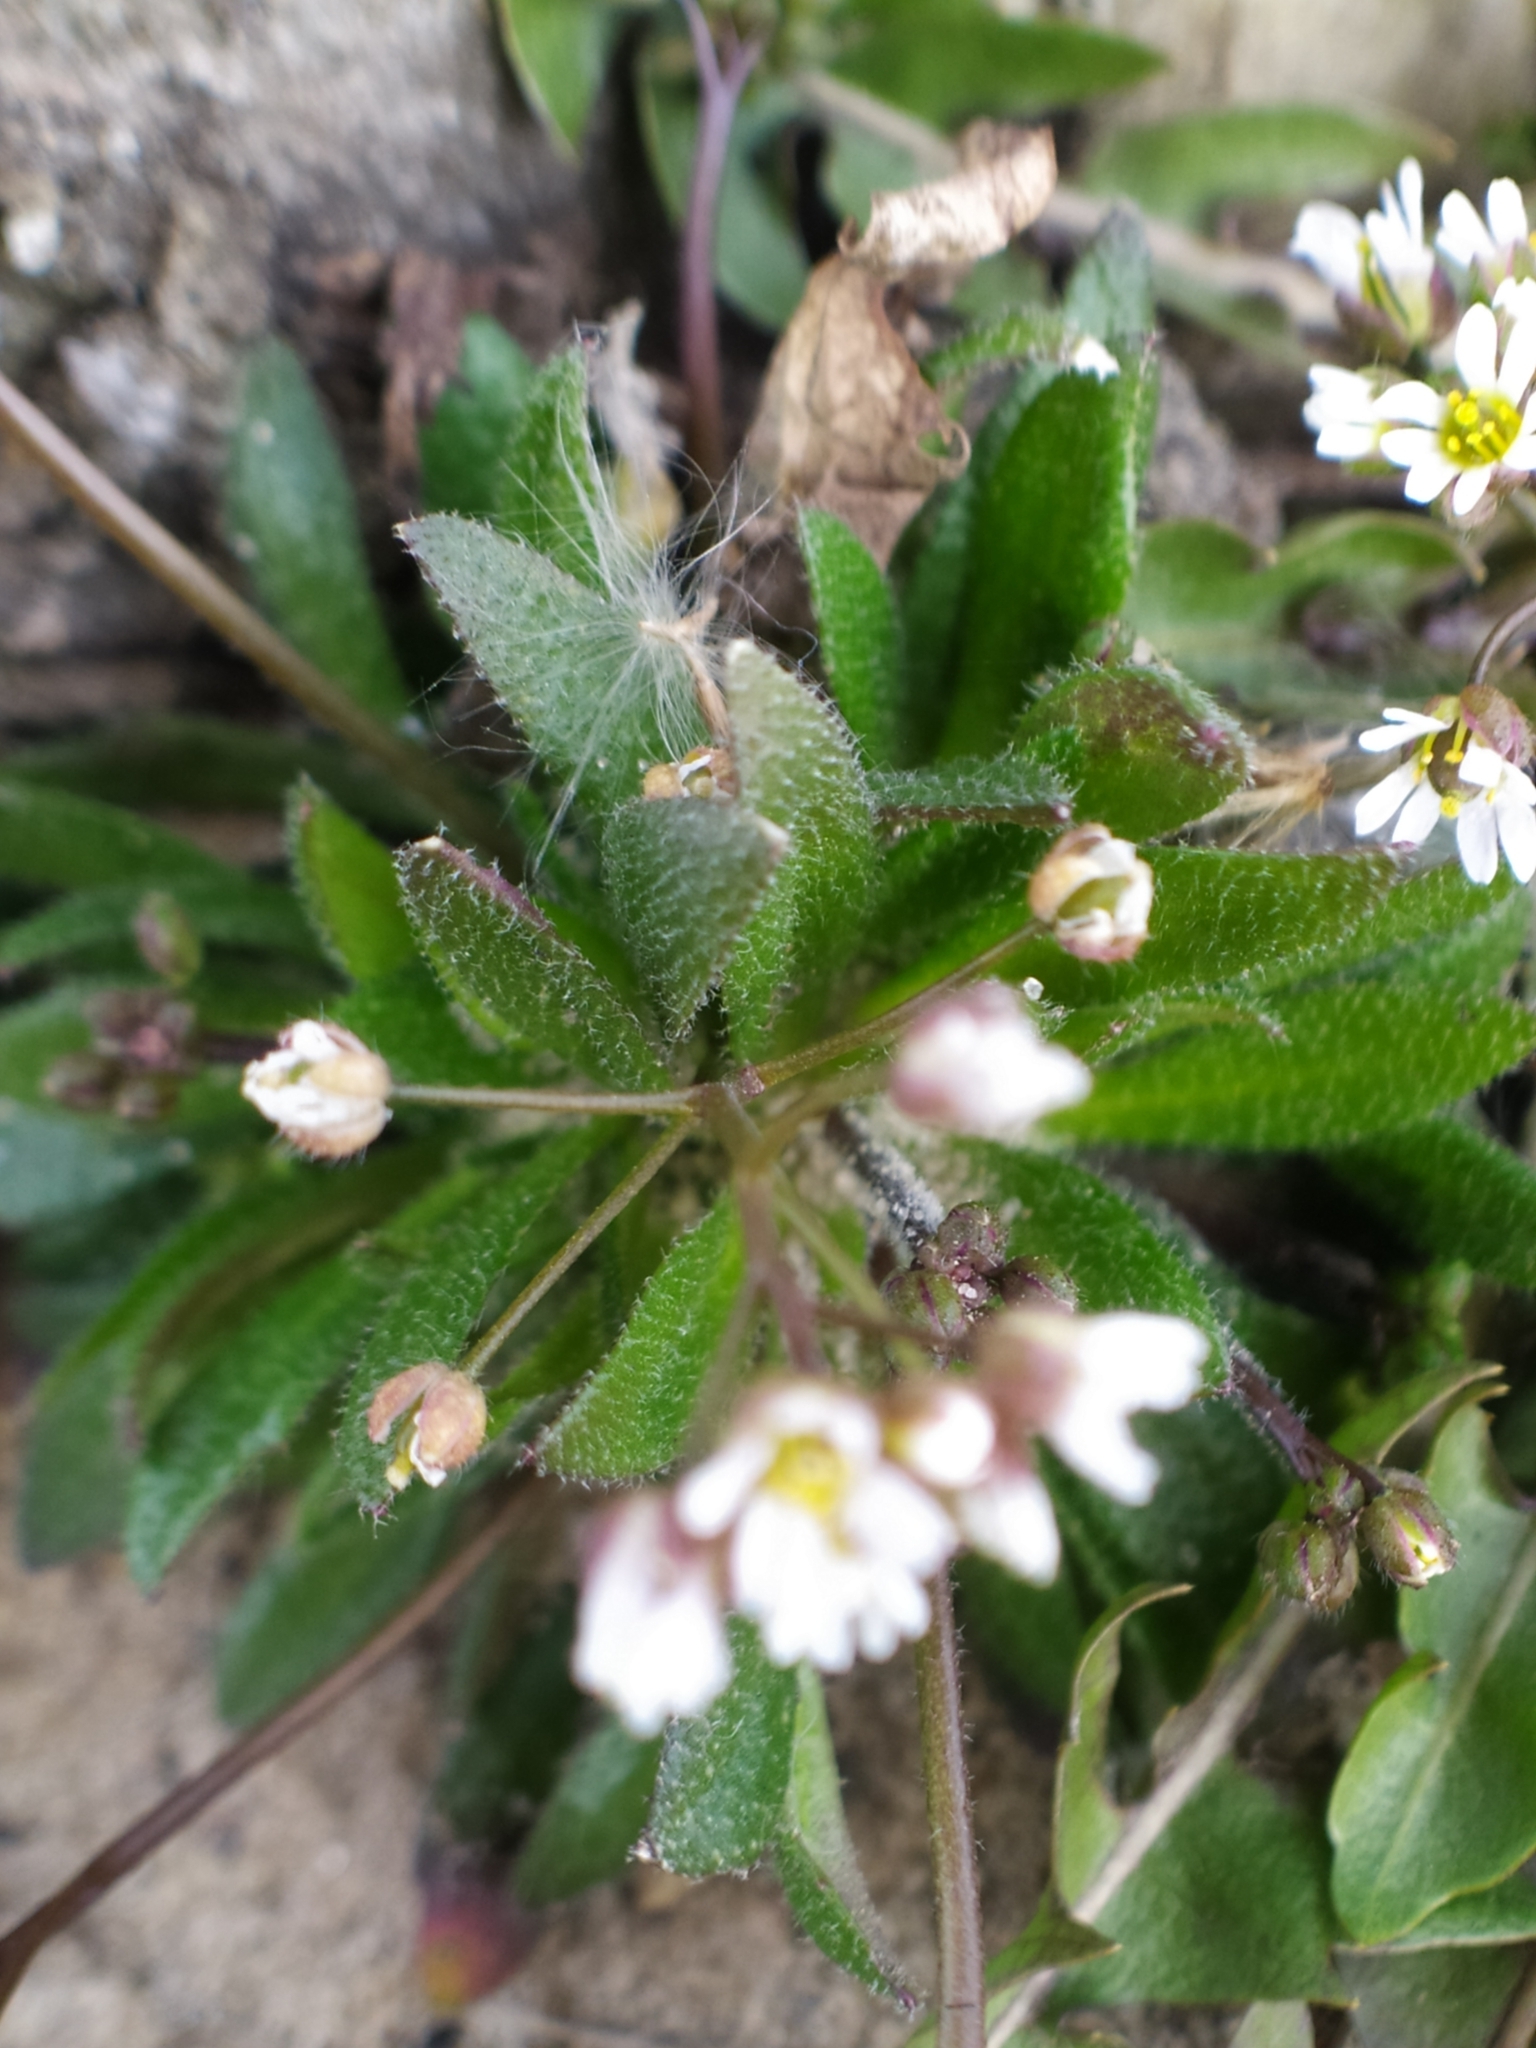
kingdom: Plantae
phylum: Tracheophyta
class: Magnoliopsida
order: Brassicales
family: Brassicaceae
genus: Draba
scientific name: Draba verna
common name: Spring draba
